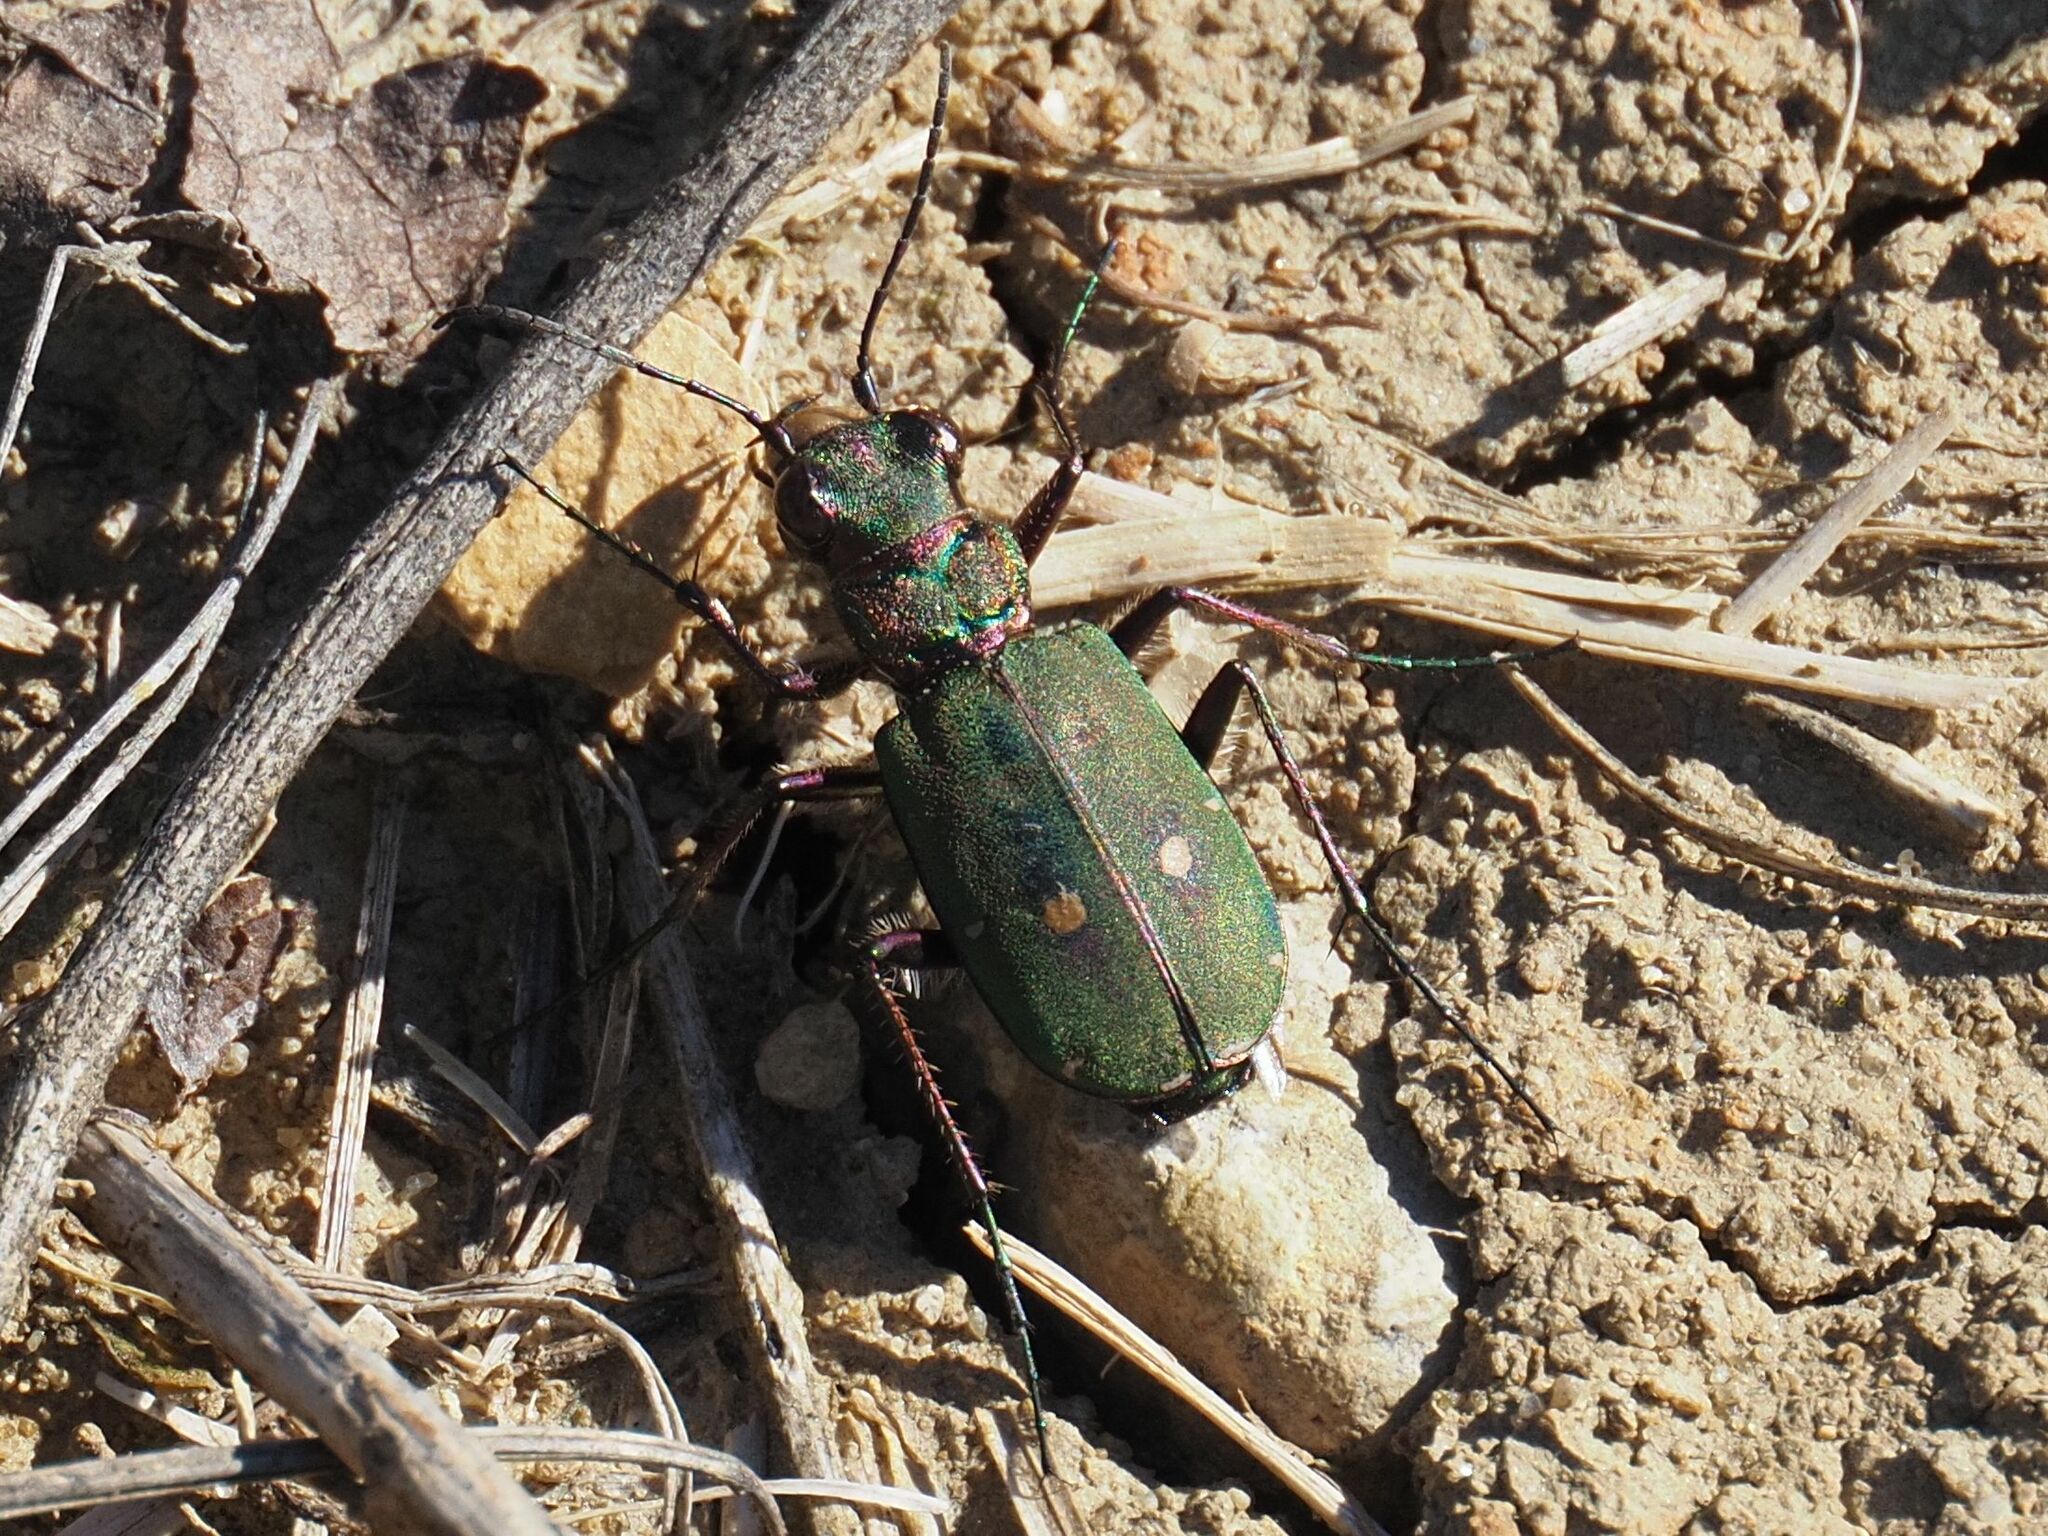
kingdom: Animalia
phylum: Arthropoda
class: Insecta
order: Coleoptera
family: Carabidae
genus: Cicindela
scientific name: Cicindela campestris
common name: Common tiger beetle
